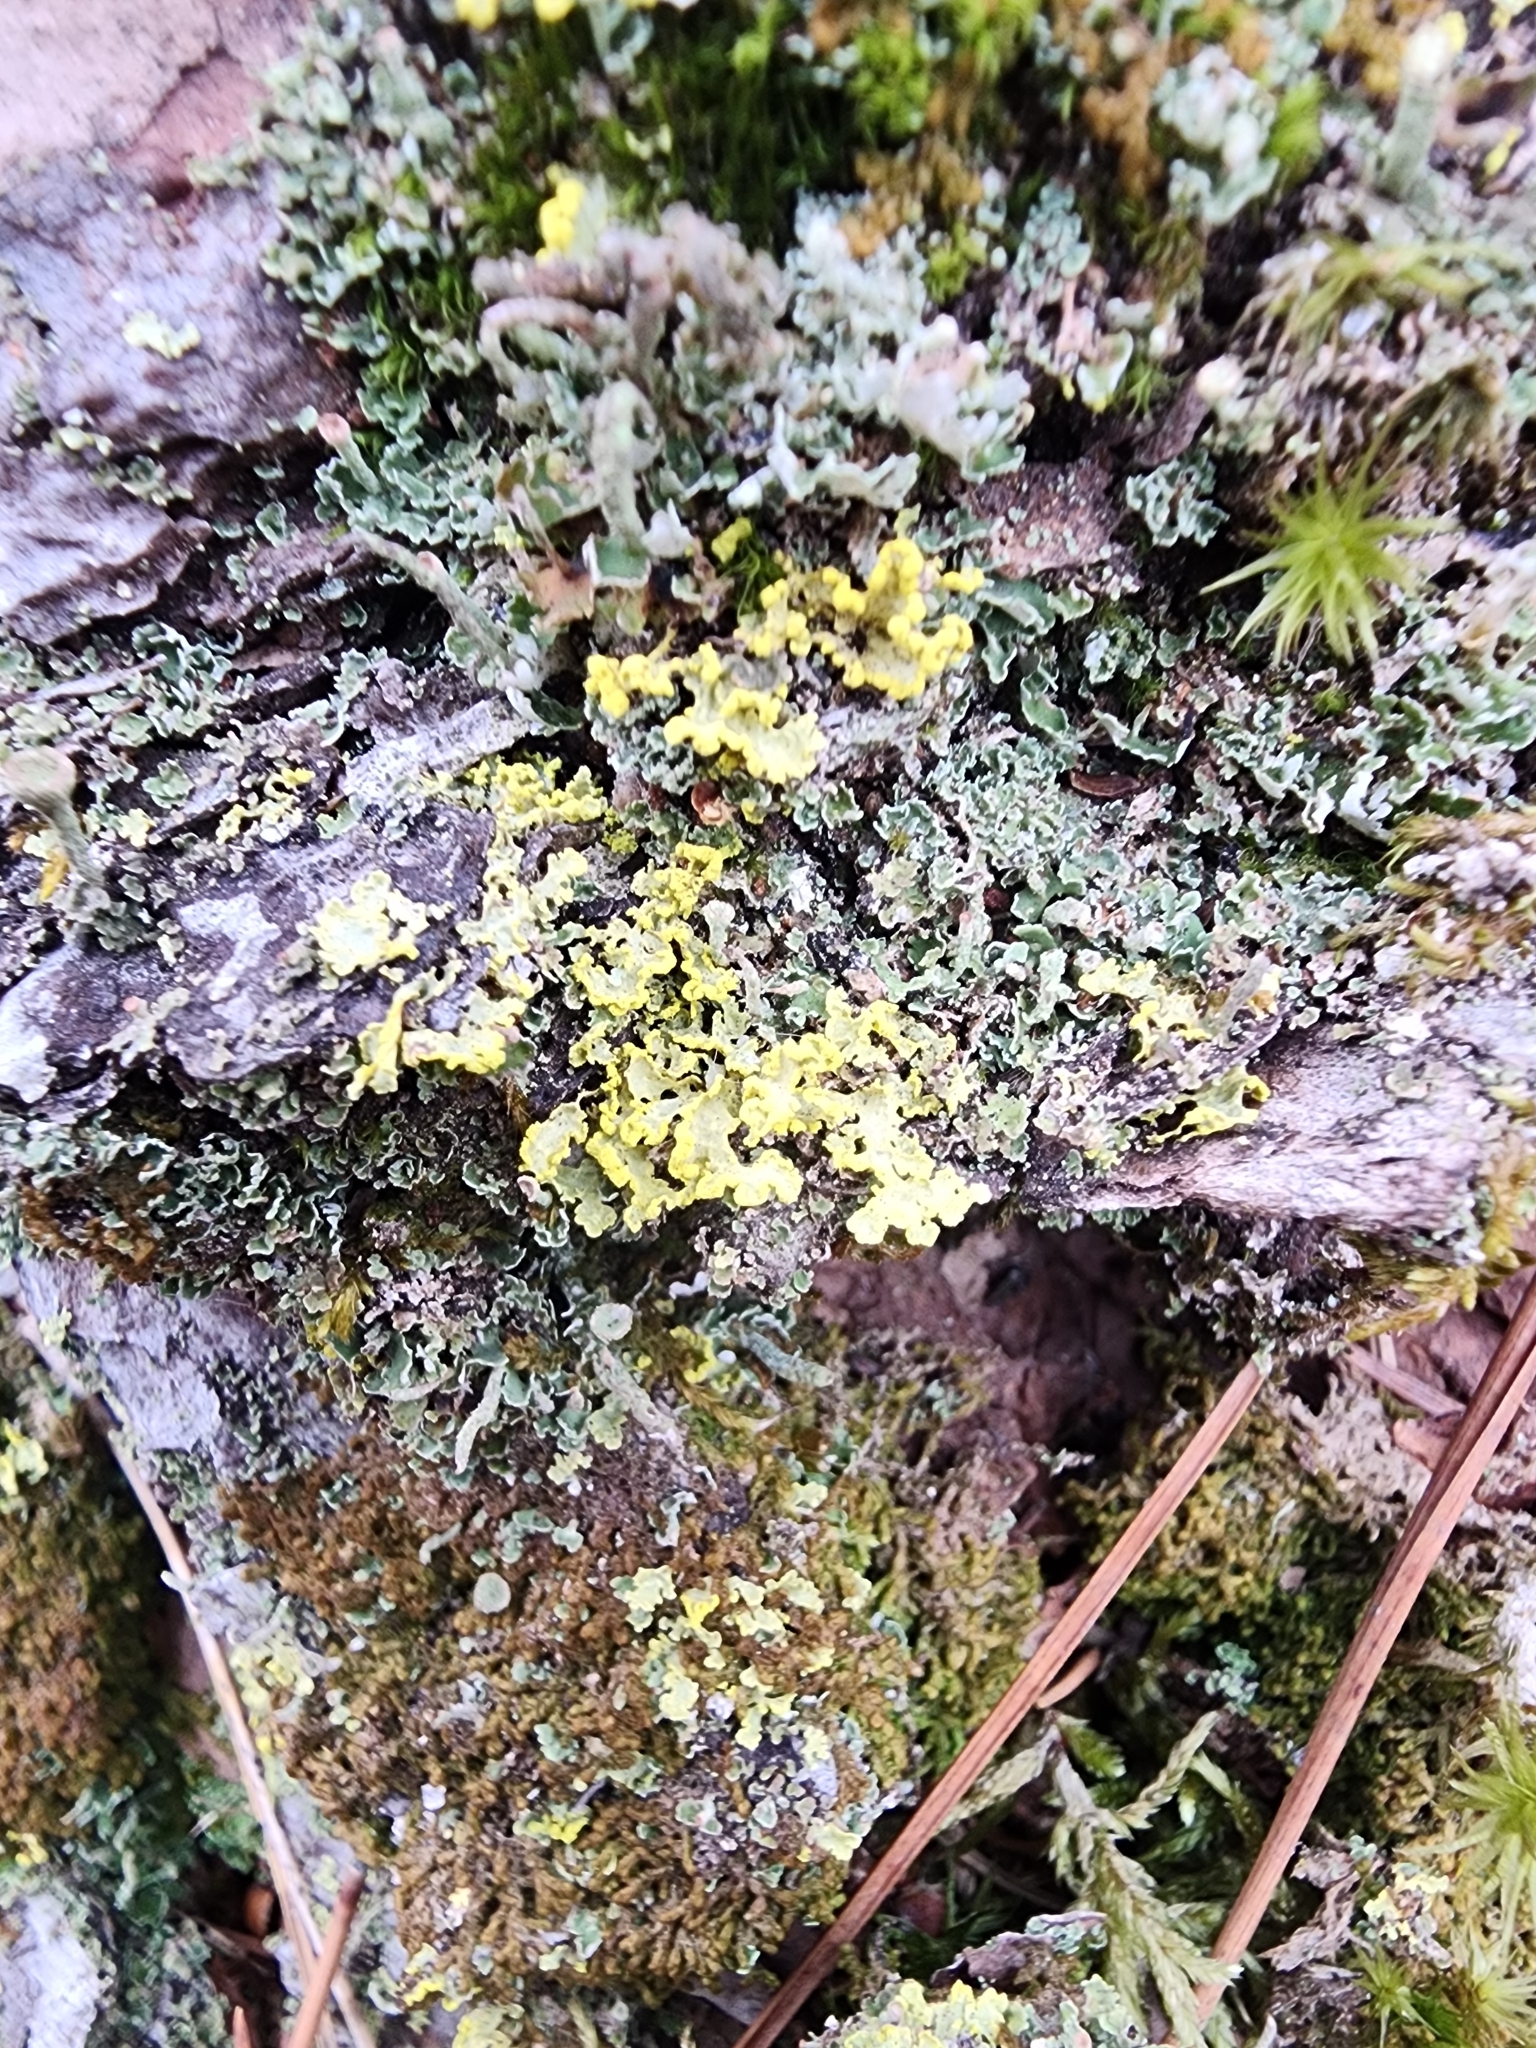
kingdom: Fungi
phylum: Ascomycota
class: Lecanoromycetes
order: Lecanorales
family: Parmeliaceae
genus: Vulpicida
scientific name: Vulpicida pinastri
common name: Powdered sunshine lichen
